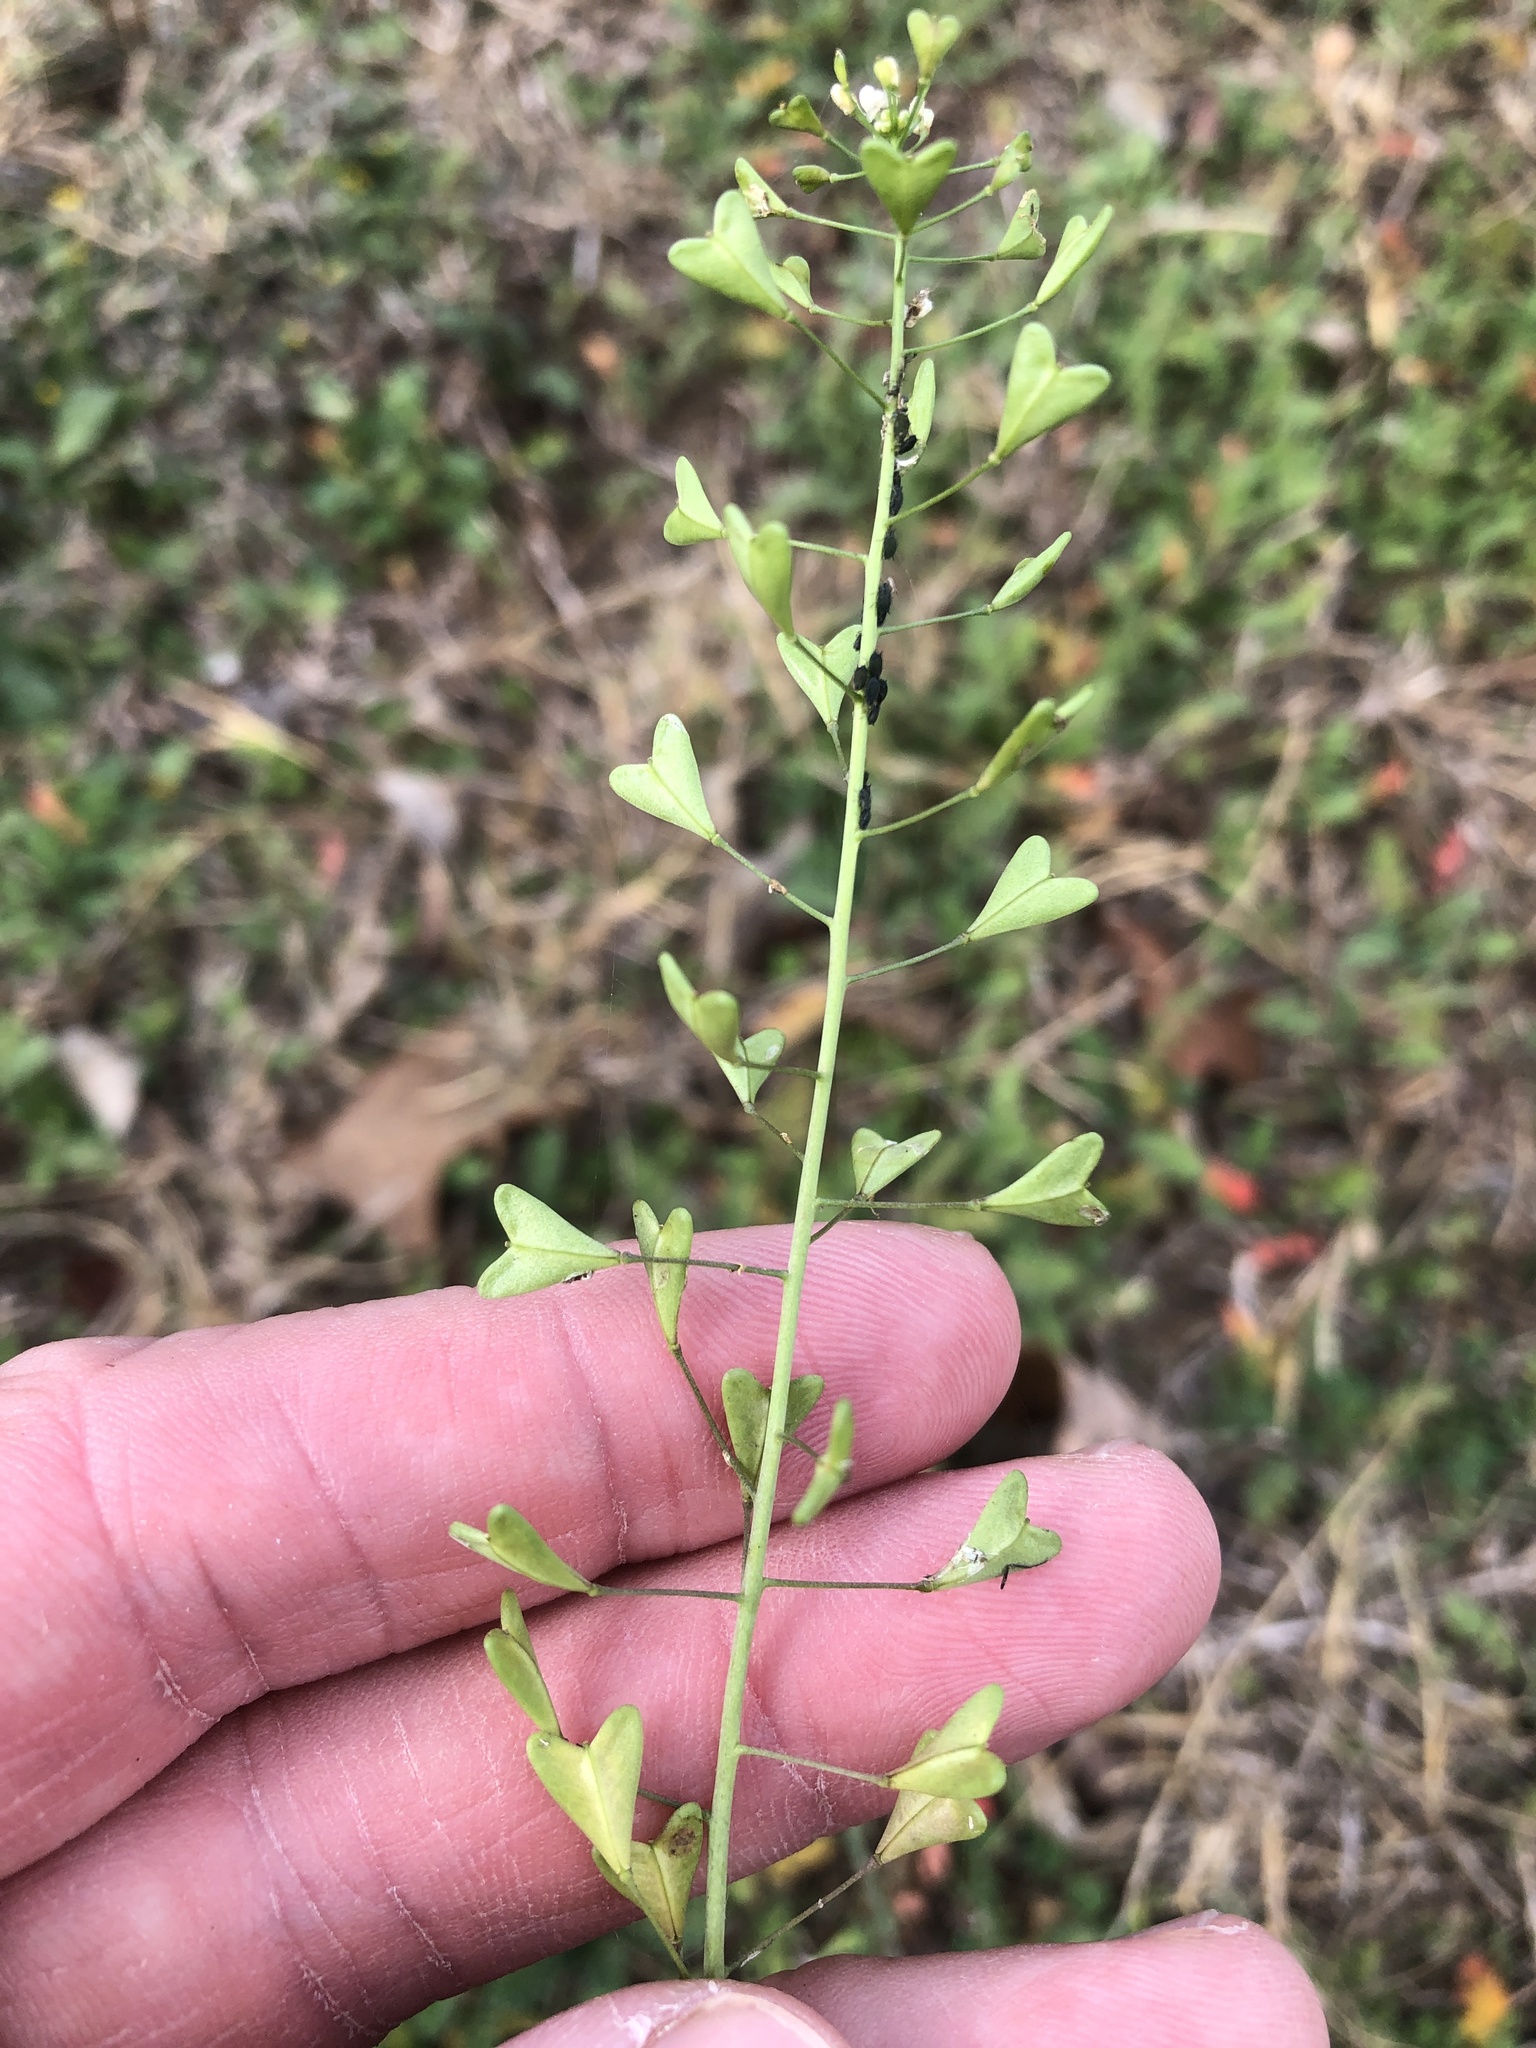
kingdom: Plantae
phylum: Tracheophyta
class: Magnoliopsida
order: Brassicales
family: Brassicaceae
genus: Capsella
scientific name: Capsella bursa-pastoris
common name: Shepherd's purse
